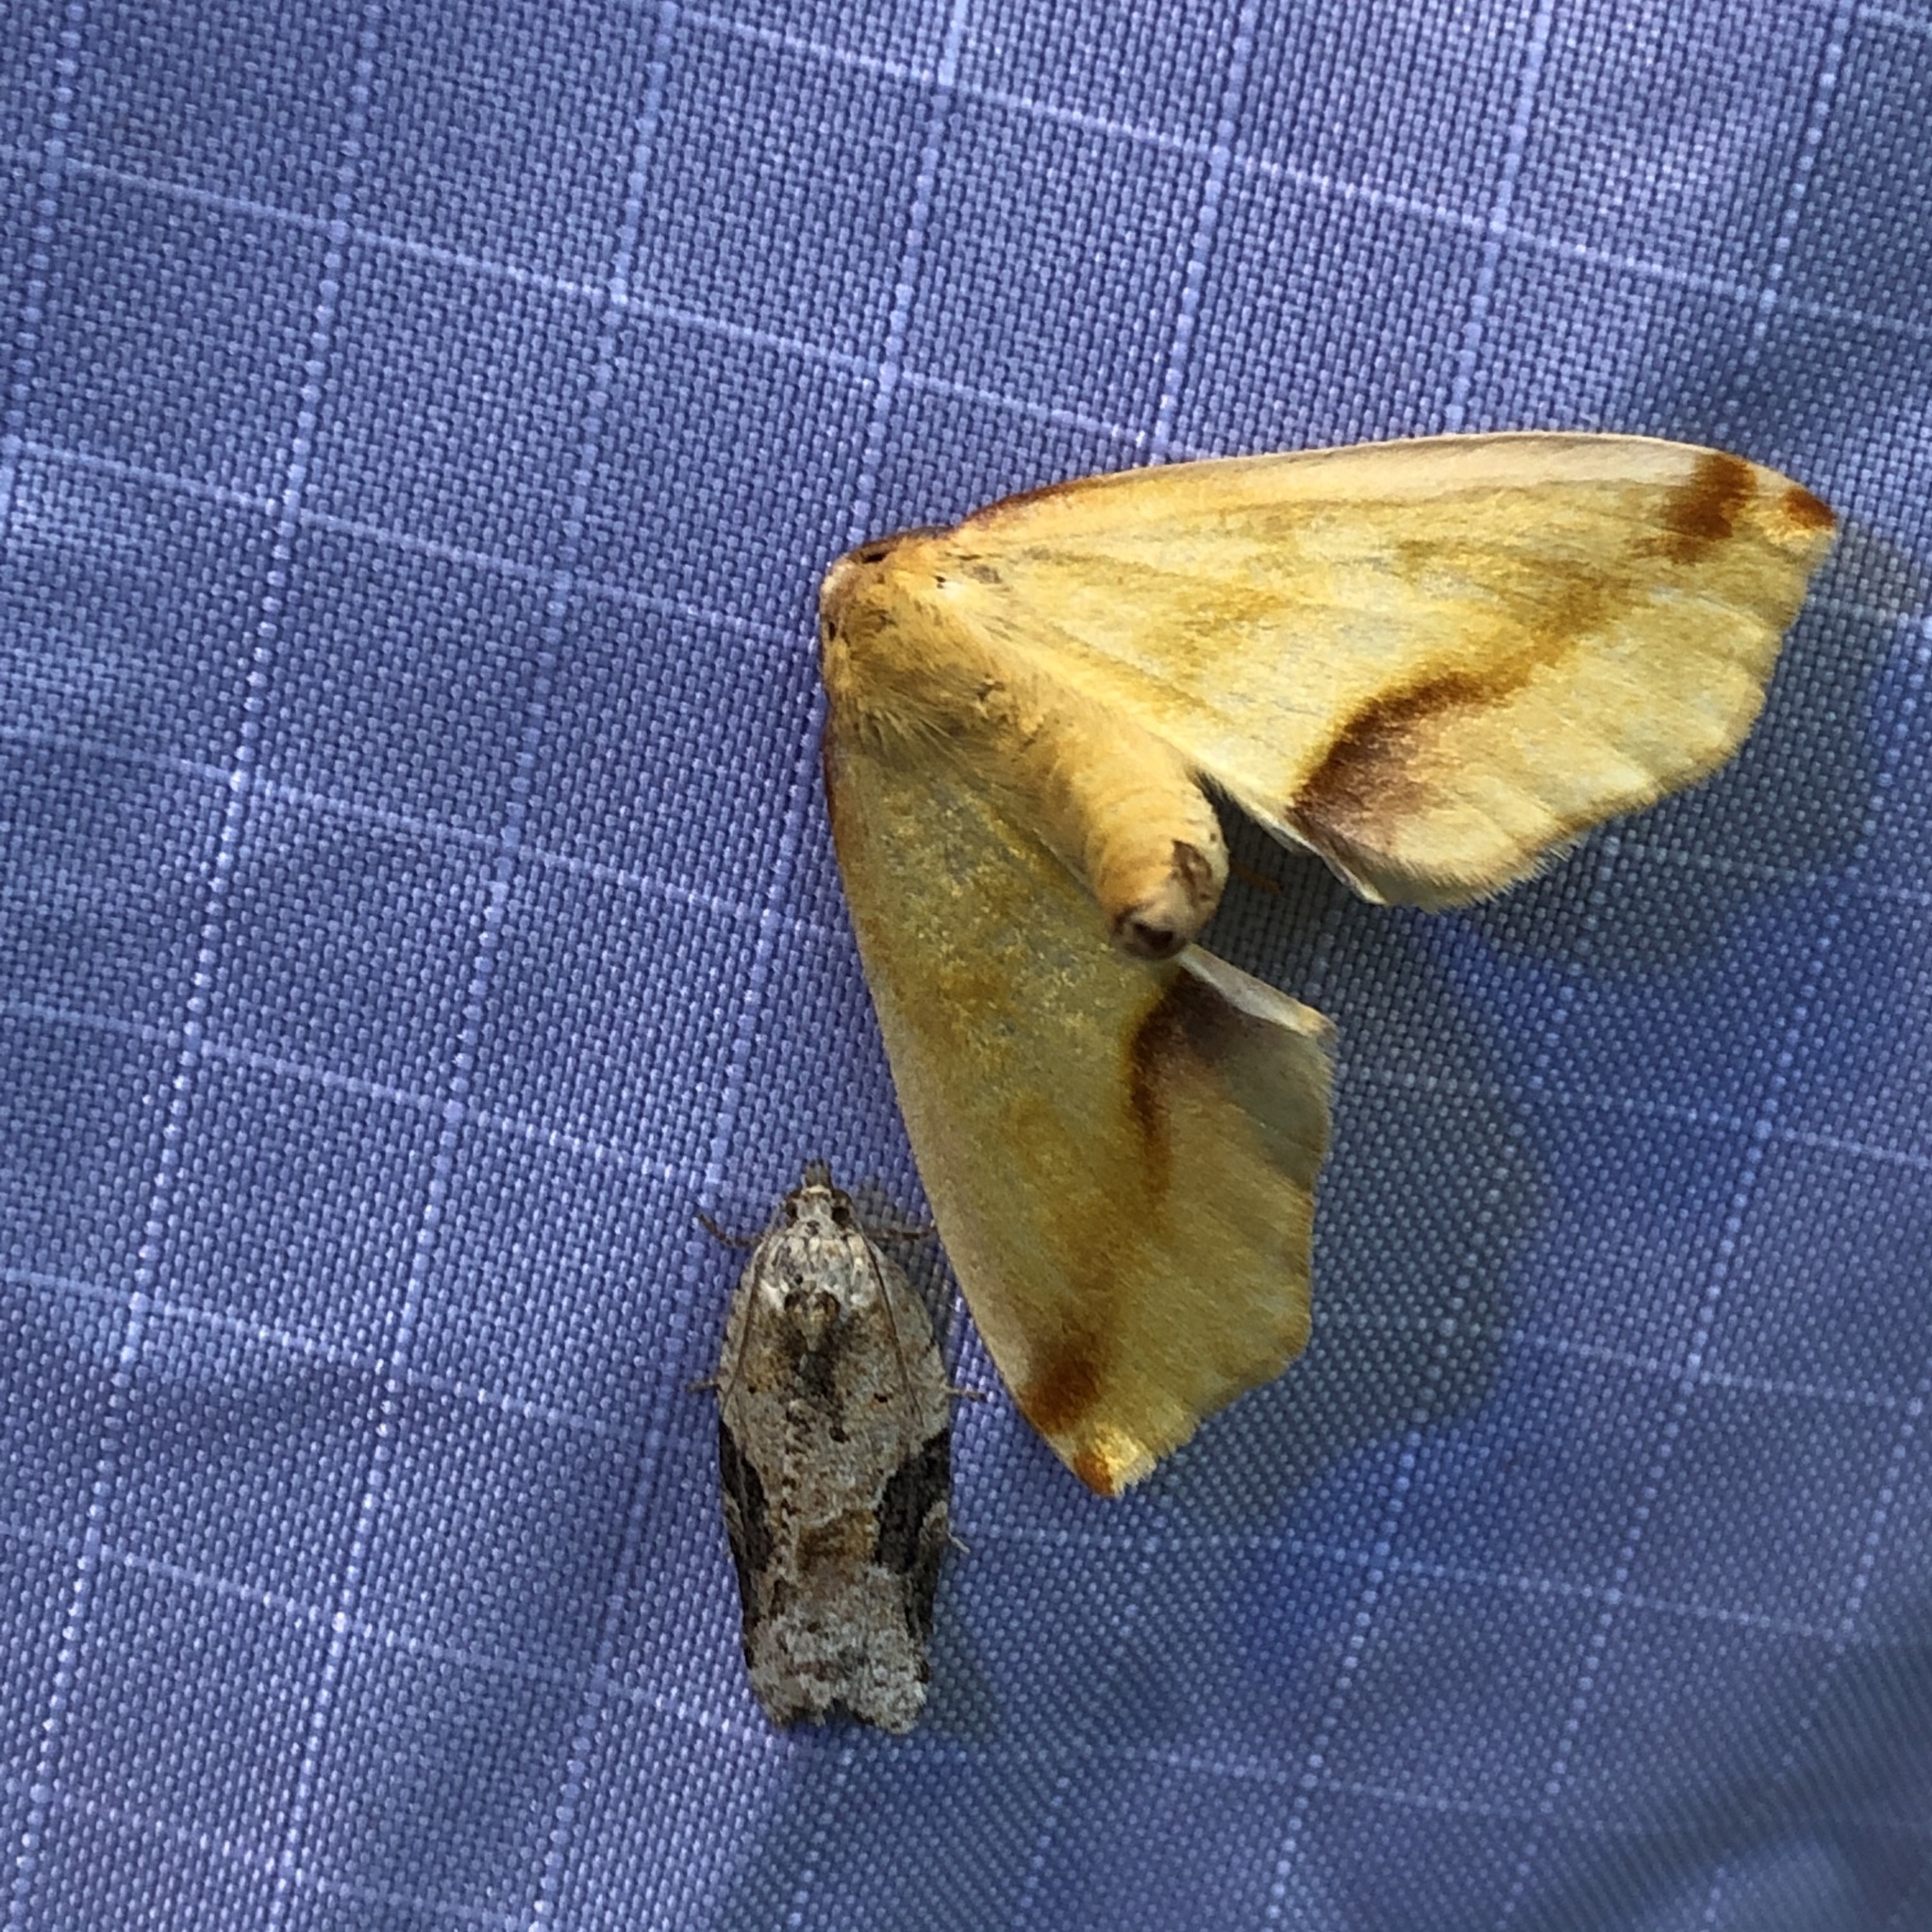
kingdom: Animalia
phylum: Arthropoda
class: Insecta
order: Lepidoptera
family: Geometridae
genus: Plagodis
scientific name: Plagodis serinaria
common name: Lemon plagodis
